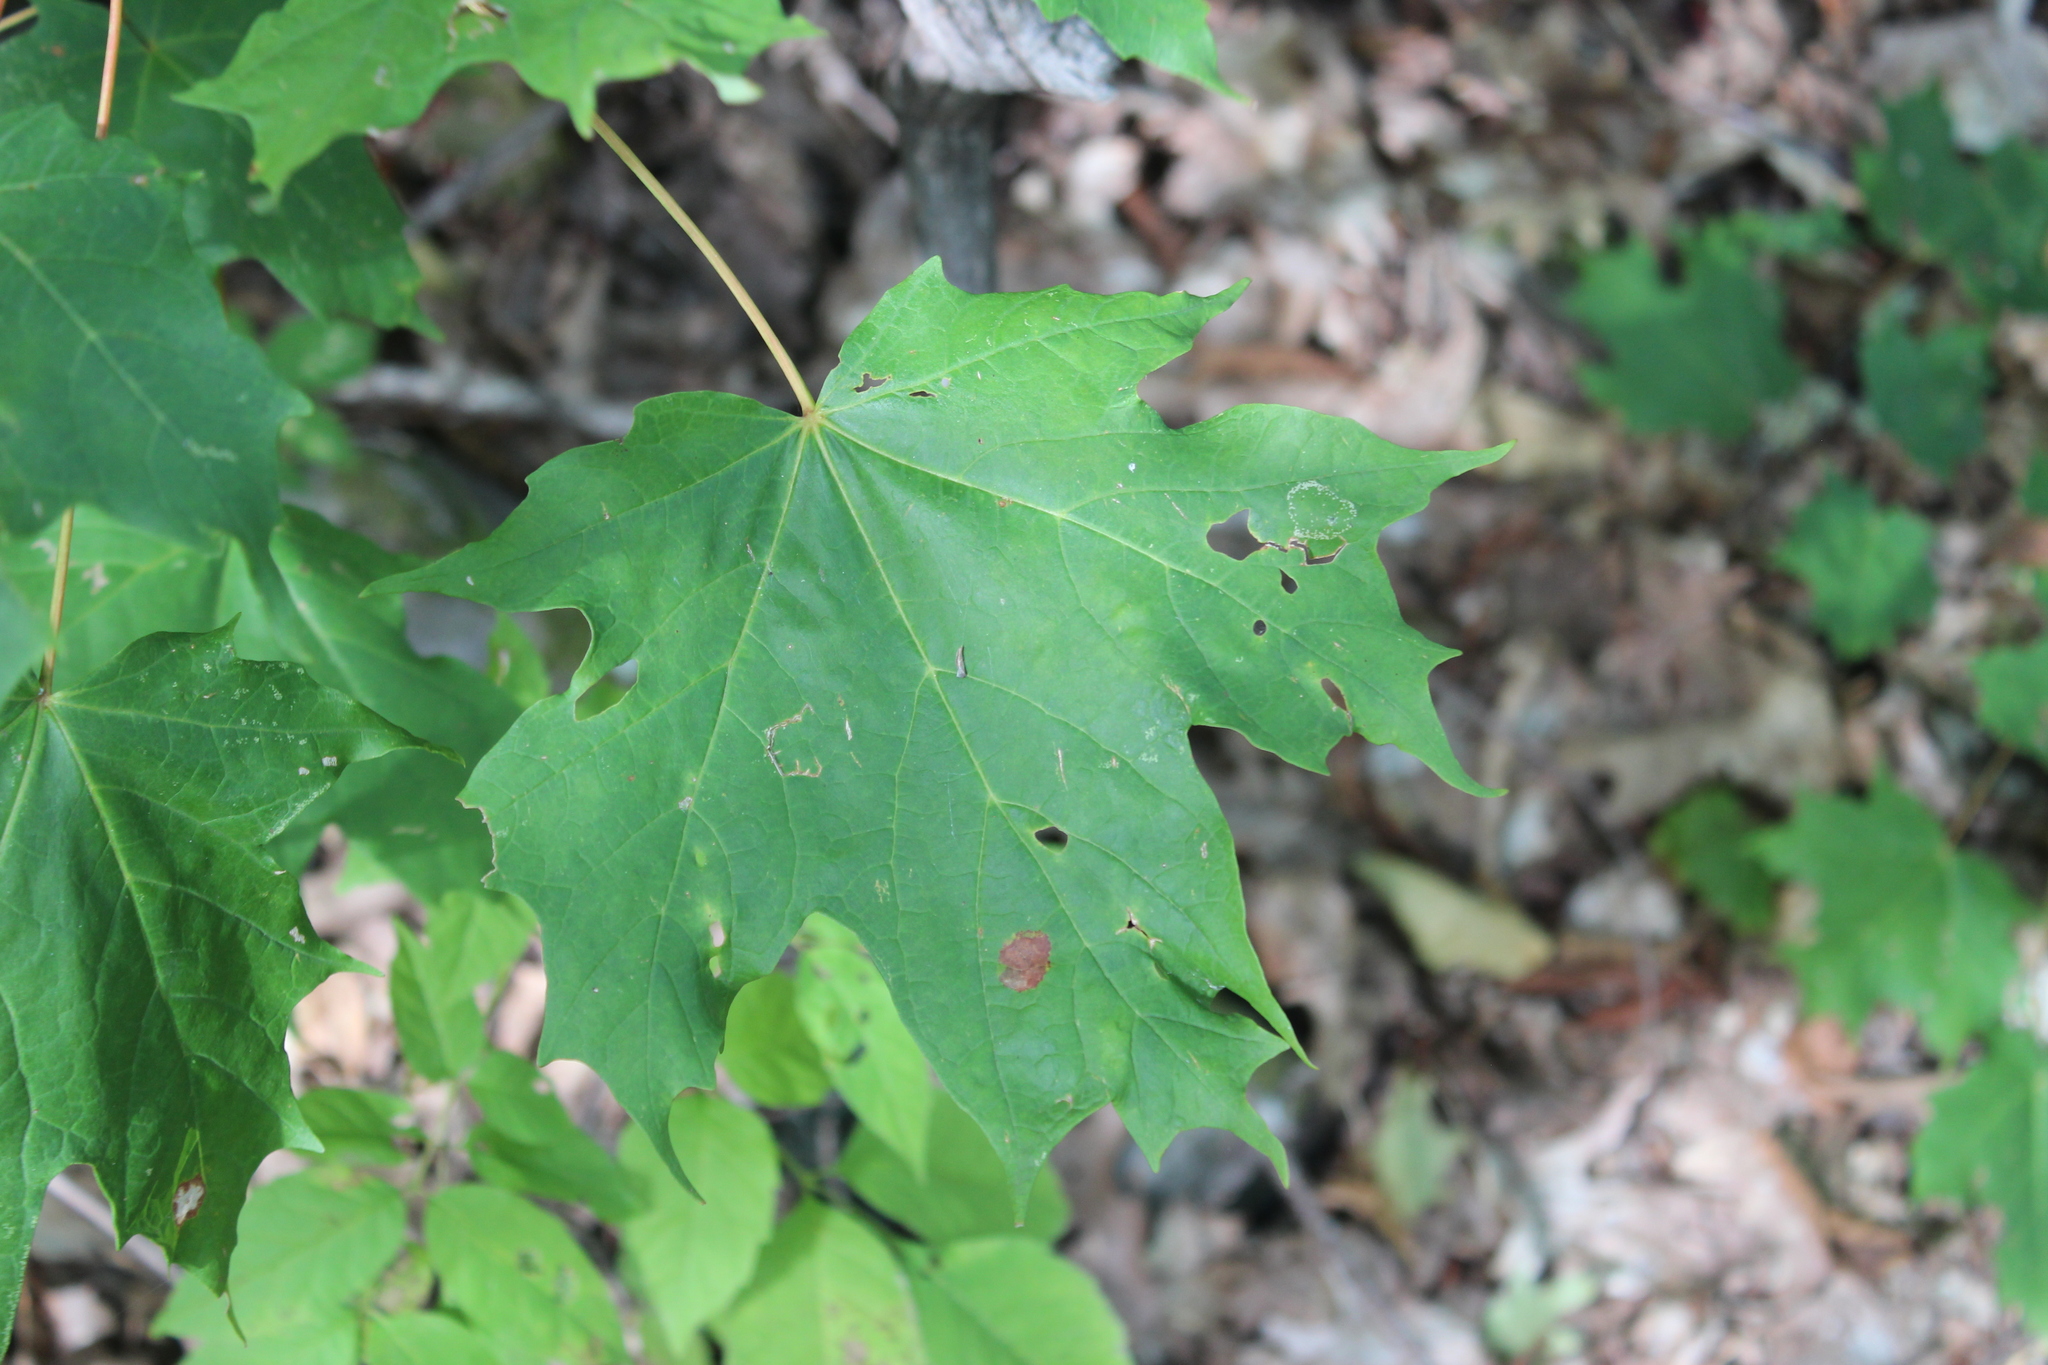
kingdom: Plantae
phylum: Tracheophyta
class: Magnoliopsida
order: Sapindales
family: Sapindaceae
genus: Acer
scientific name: Acer saccharum
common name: Sugar maple
